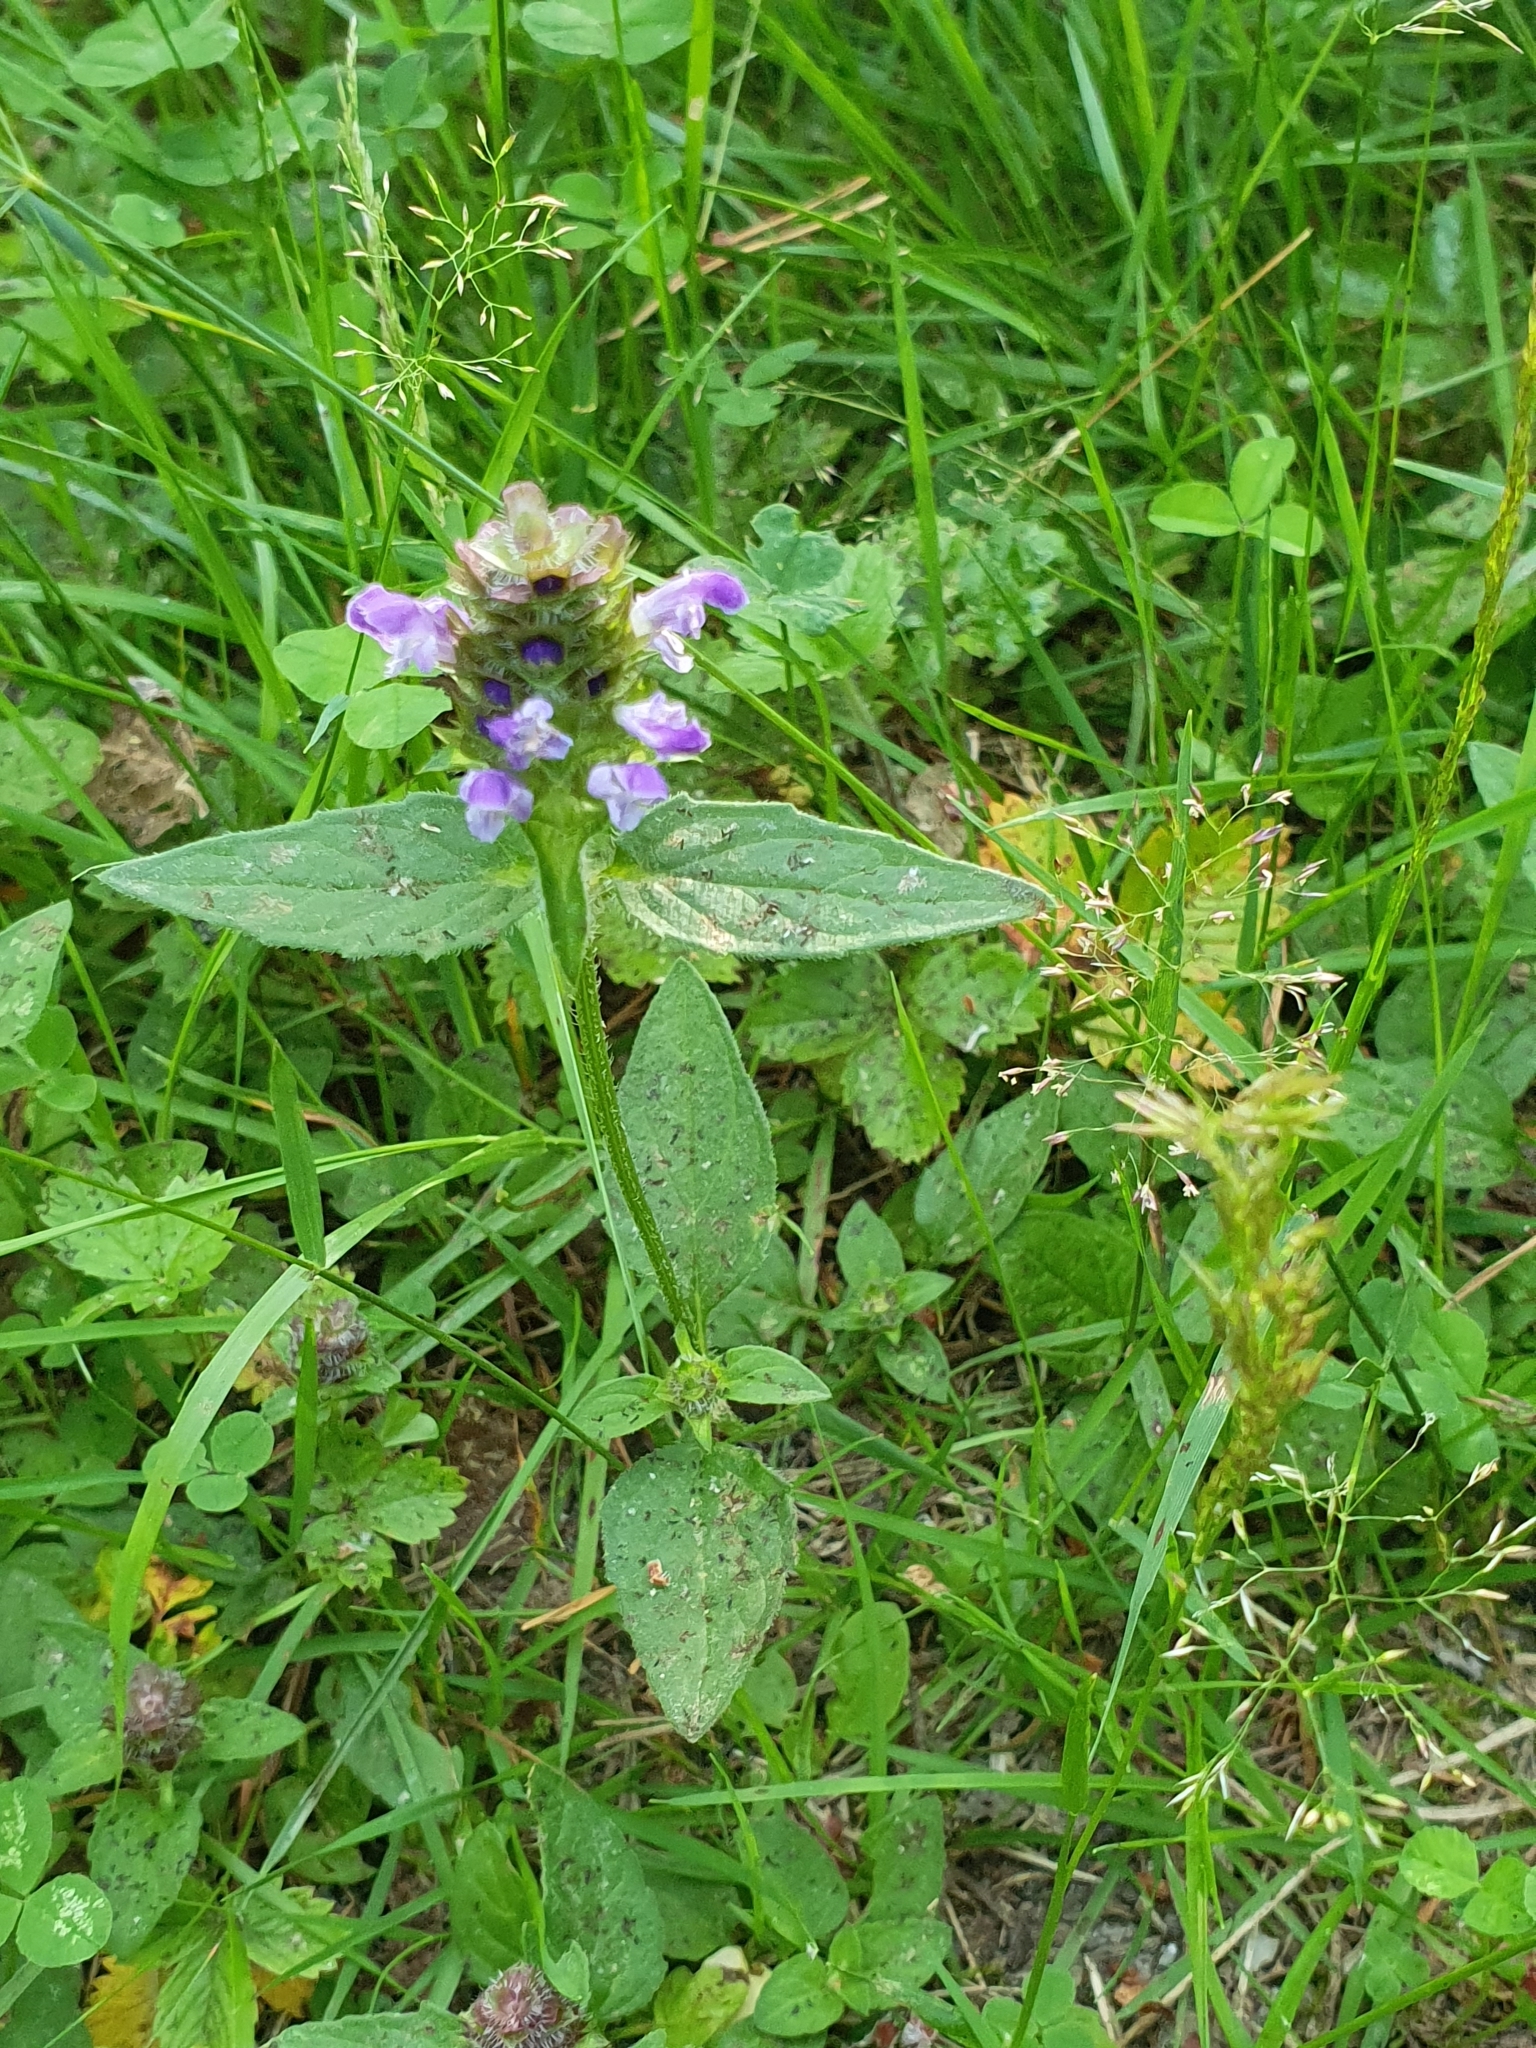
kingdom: Plantae
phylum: Tracheophyta
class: Magnoliopsida
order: Lamiales
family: Lamiaceae
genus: Prunella
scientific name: Prunella vulgaris
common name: Heal-all
